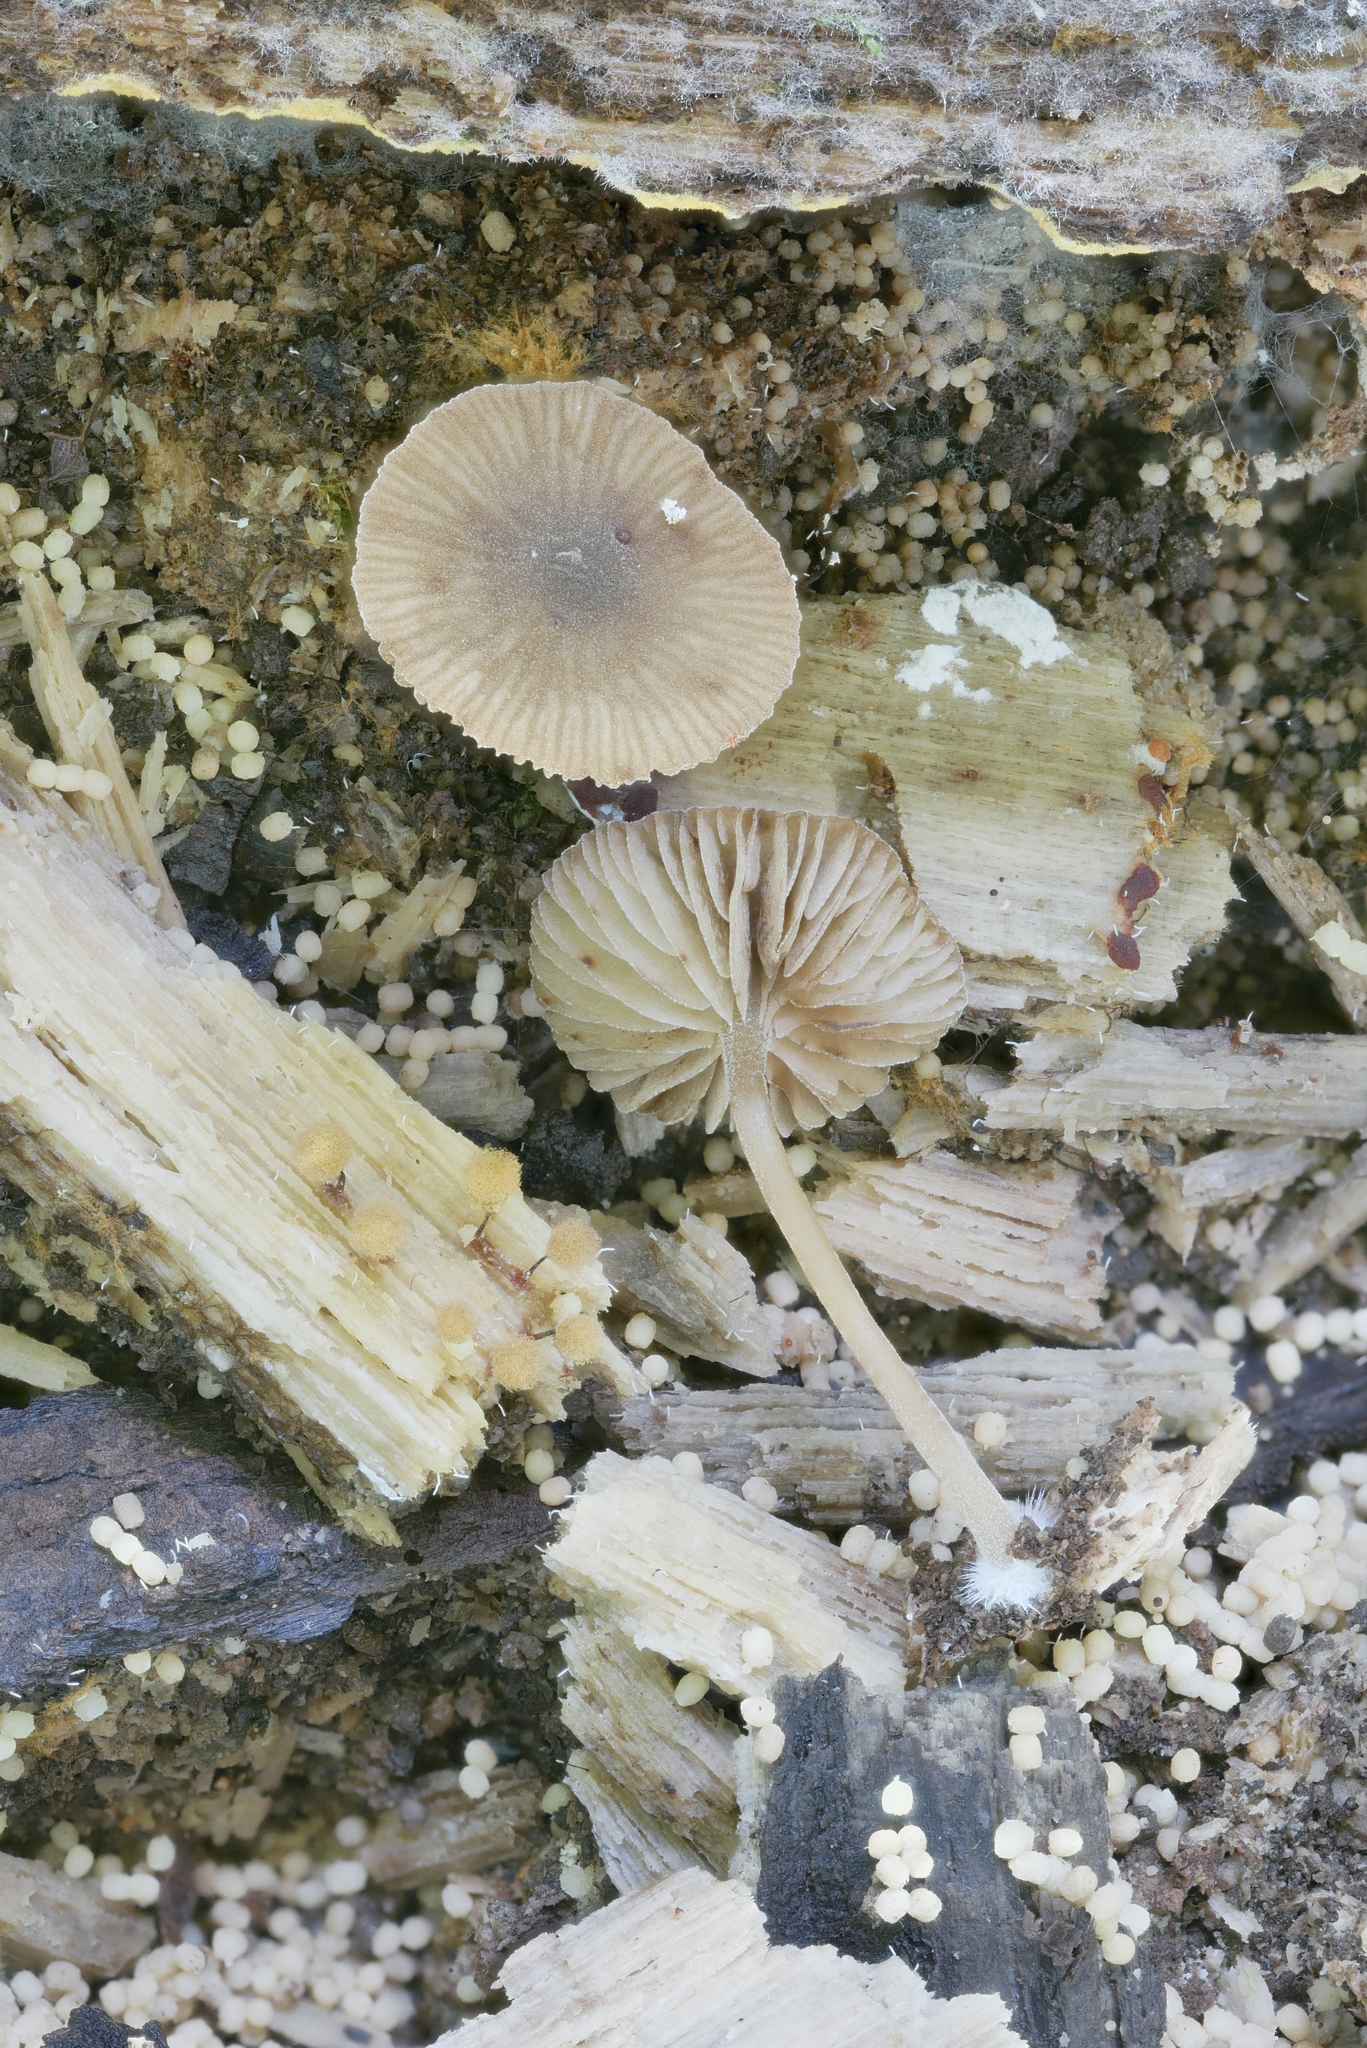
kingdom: Fungi
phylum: Basidiomycota
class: Agaricomycetes
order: Agaricales
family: Crepidotaceae
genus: Simocybe
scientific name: Simocybe centunculus
